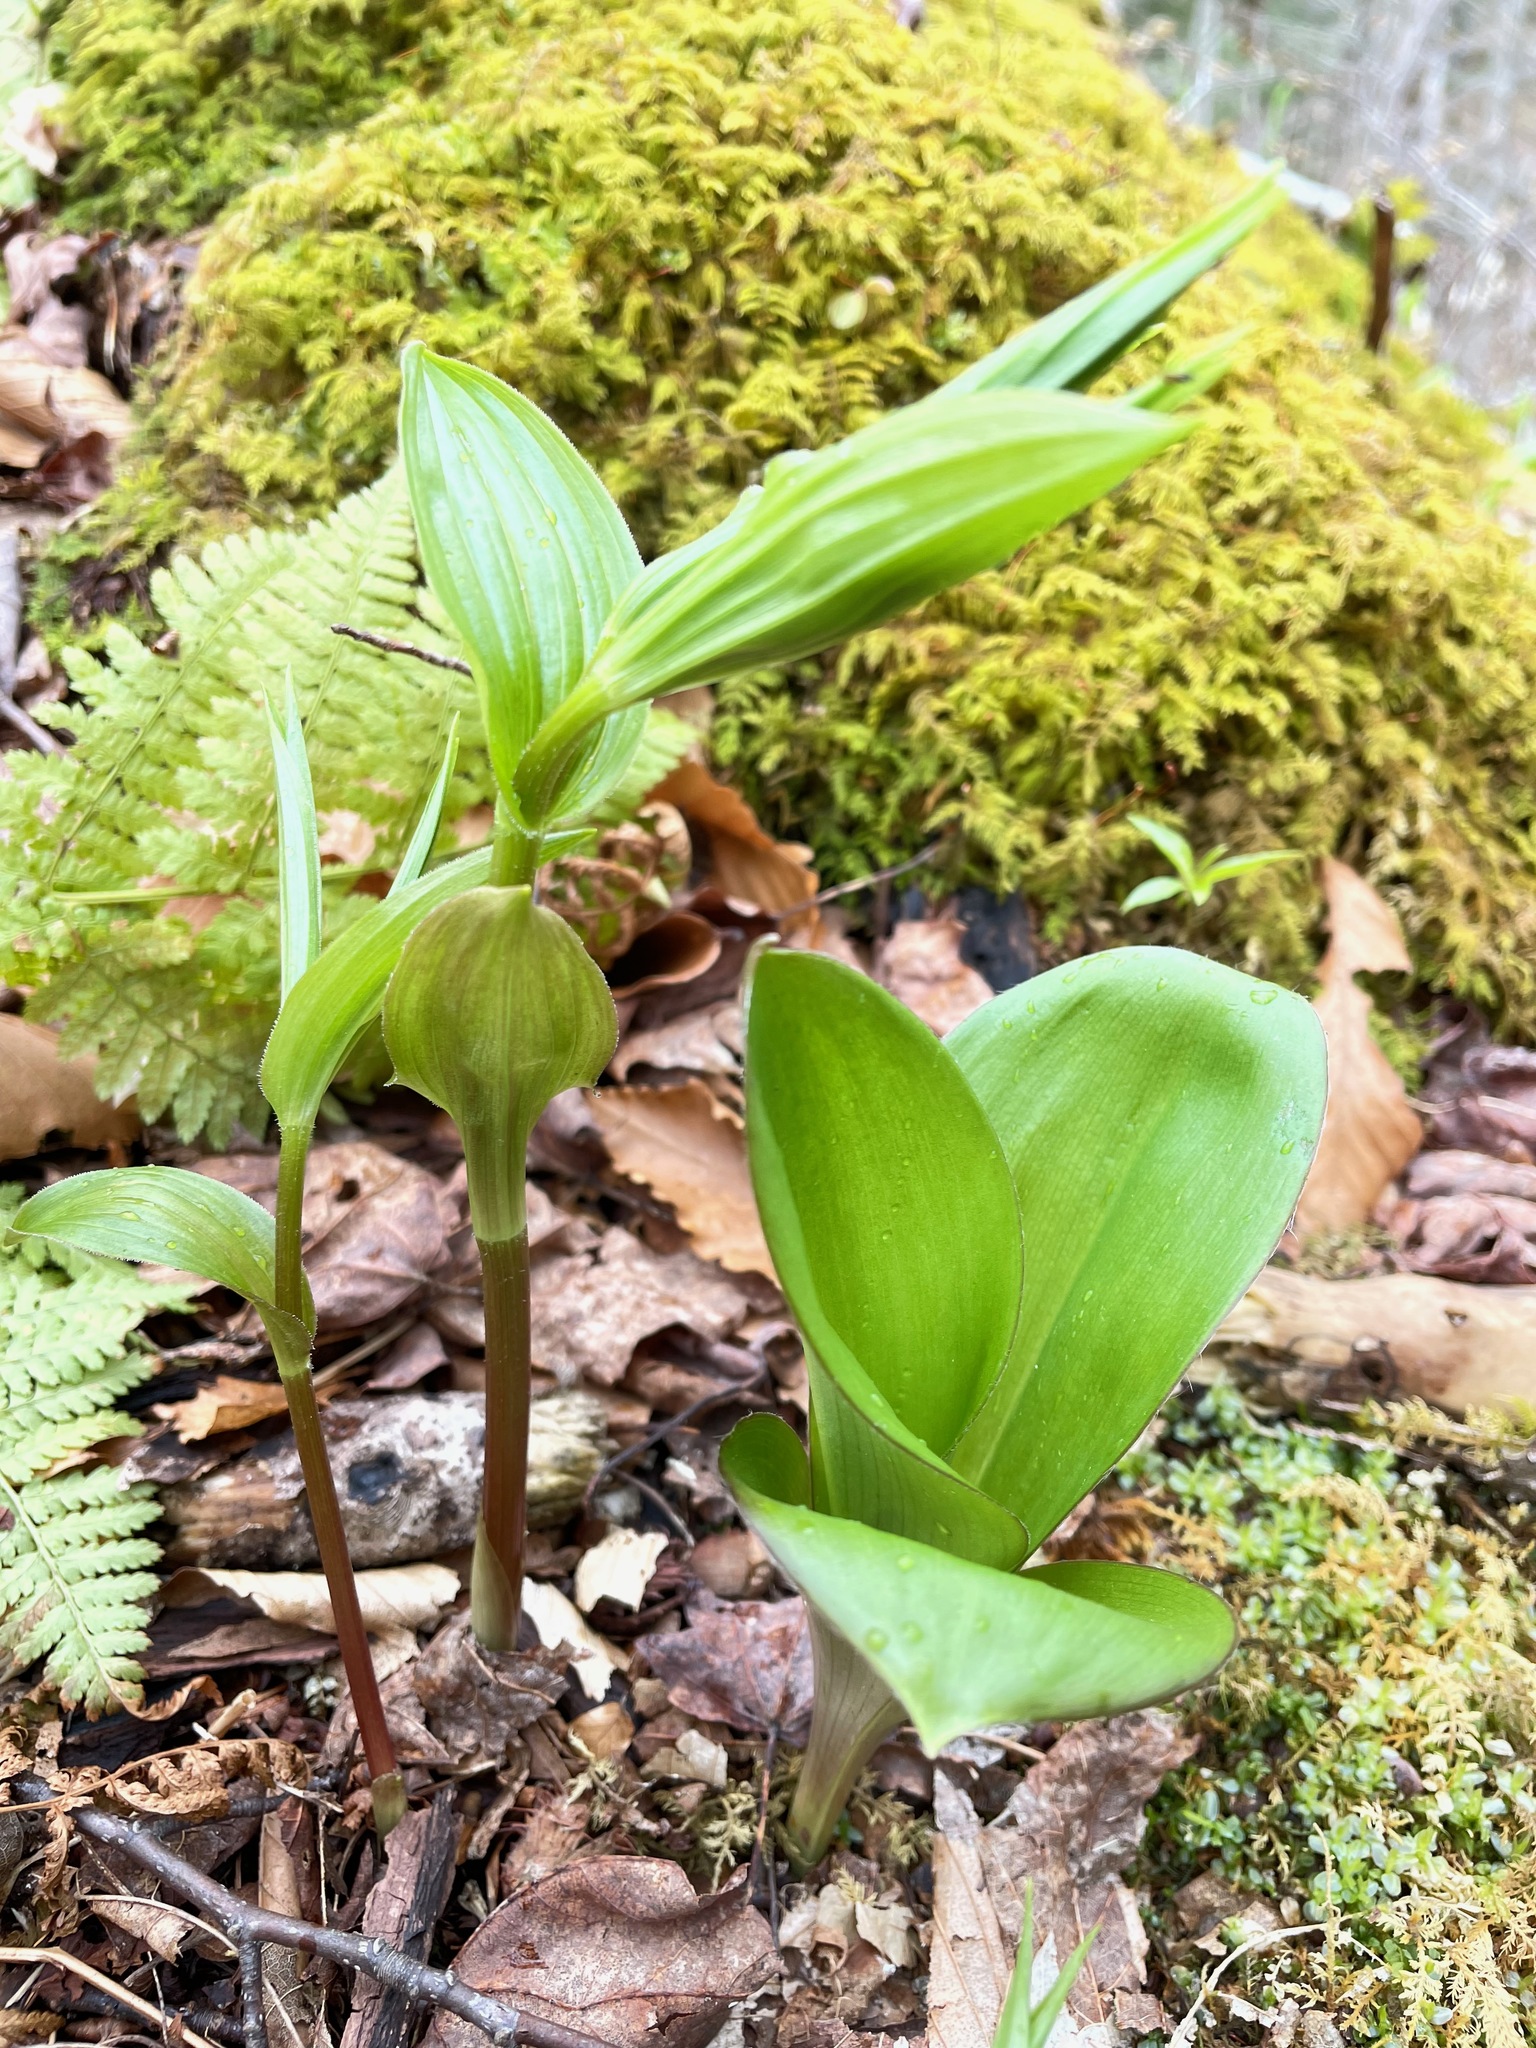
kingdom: Plantae
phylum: Tracheophyta
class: Liliopsida
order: Liliales
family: Liliaceae
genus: Streptopus
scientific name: Streptopus lanceolatus
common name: Rose mandarin
